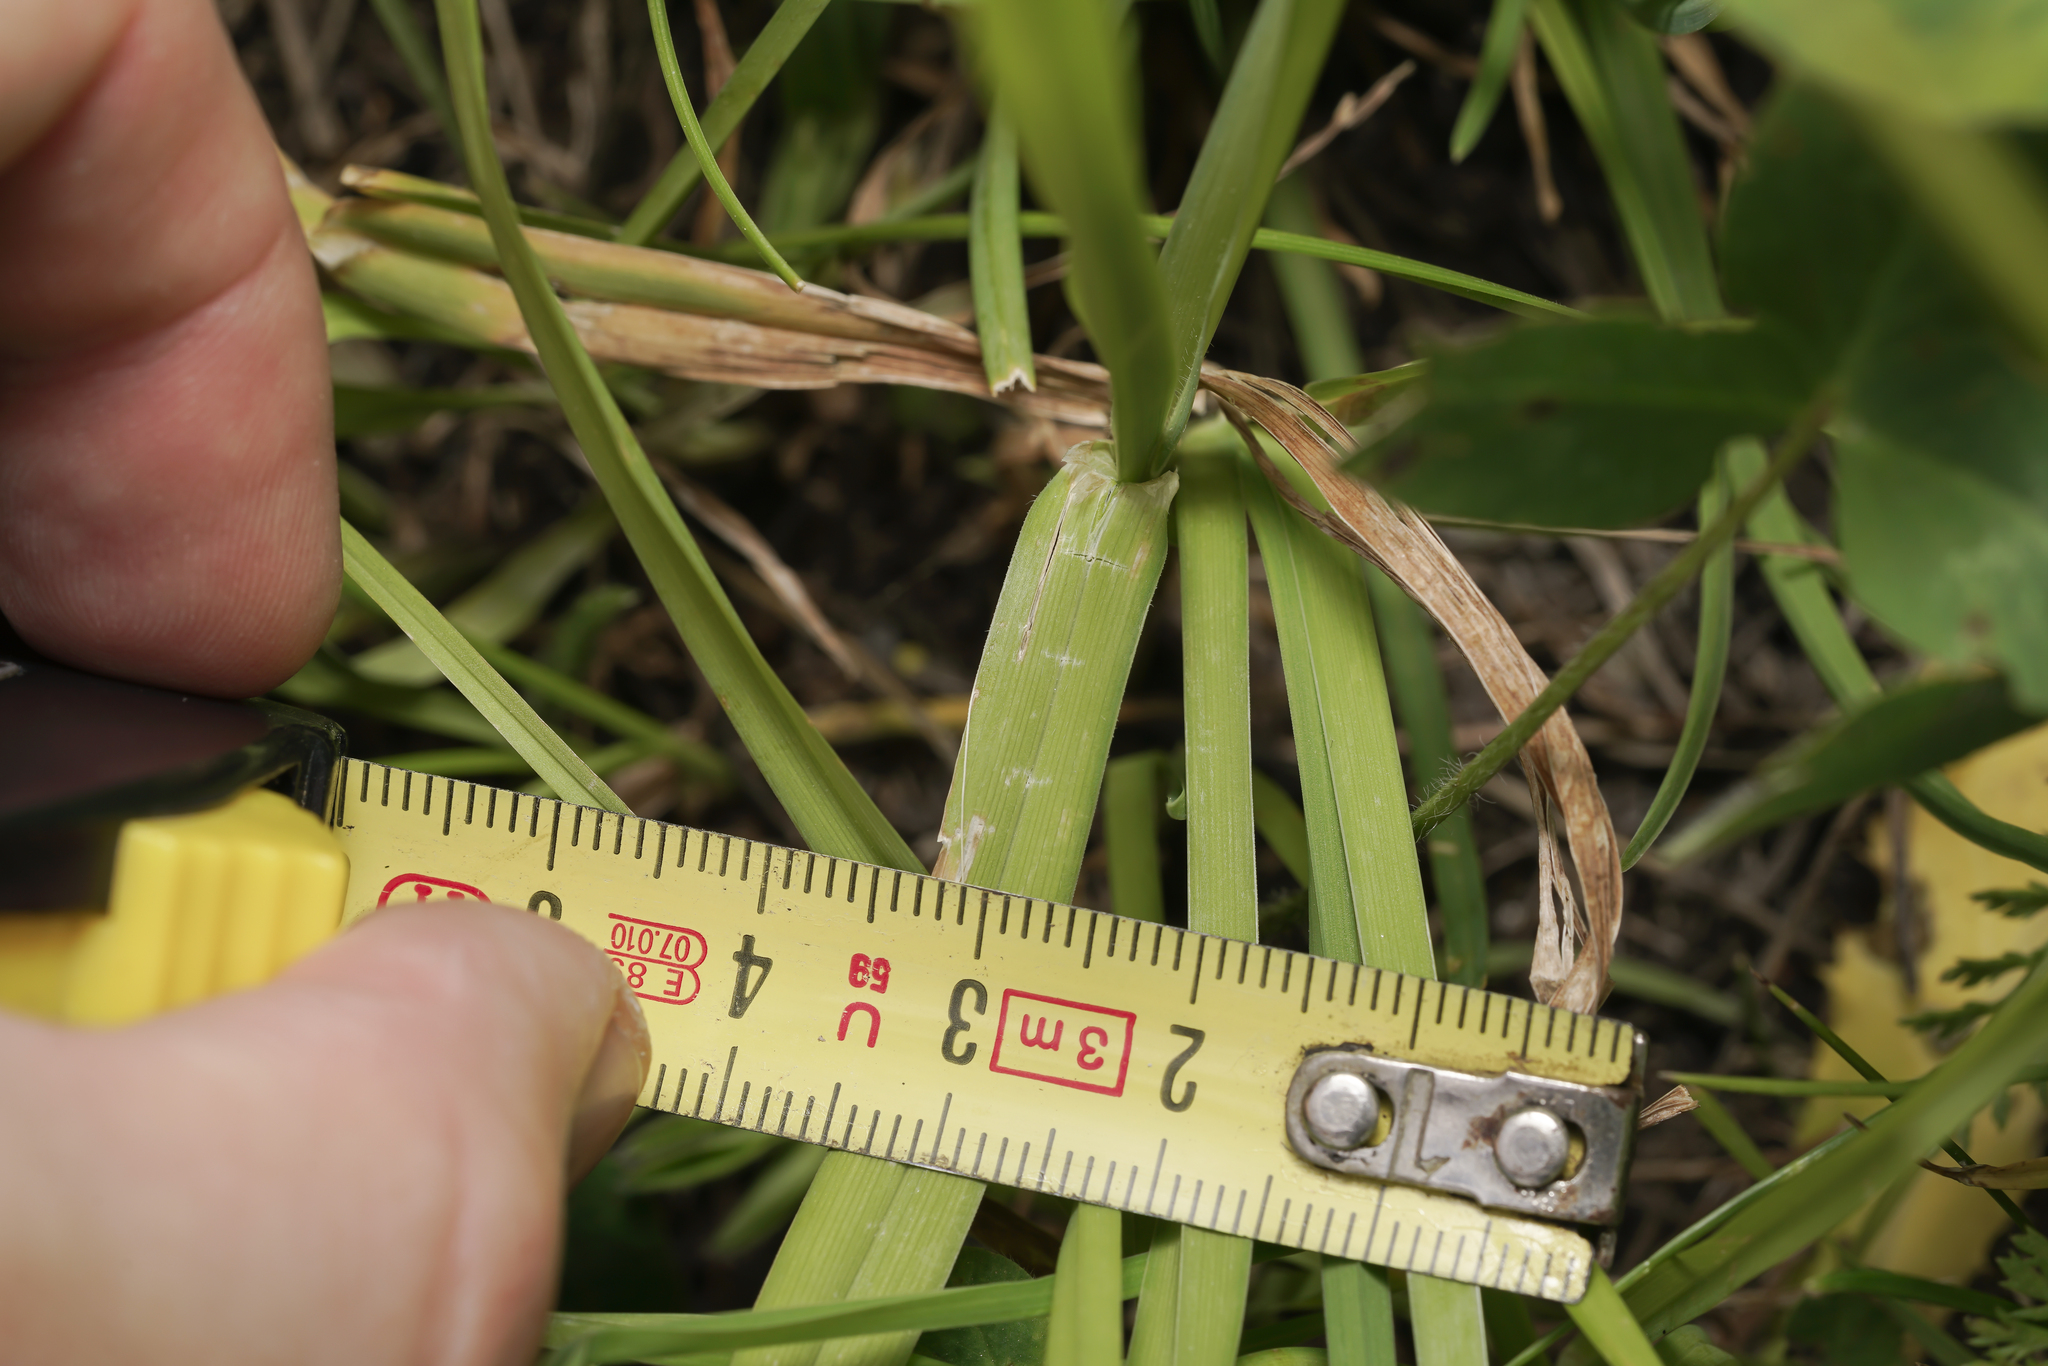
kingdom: Plantae
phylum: Tracheophyta
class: Liliopsida
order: Poales
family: Poaceae
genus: Dactylis
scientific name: Dactylis glomerata
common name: Orchardgrass
